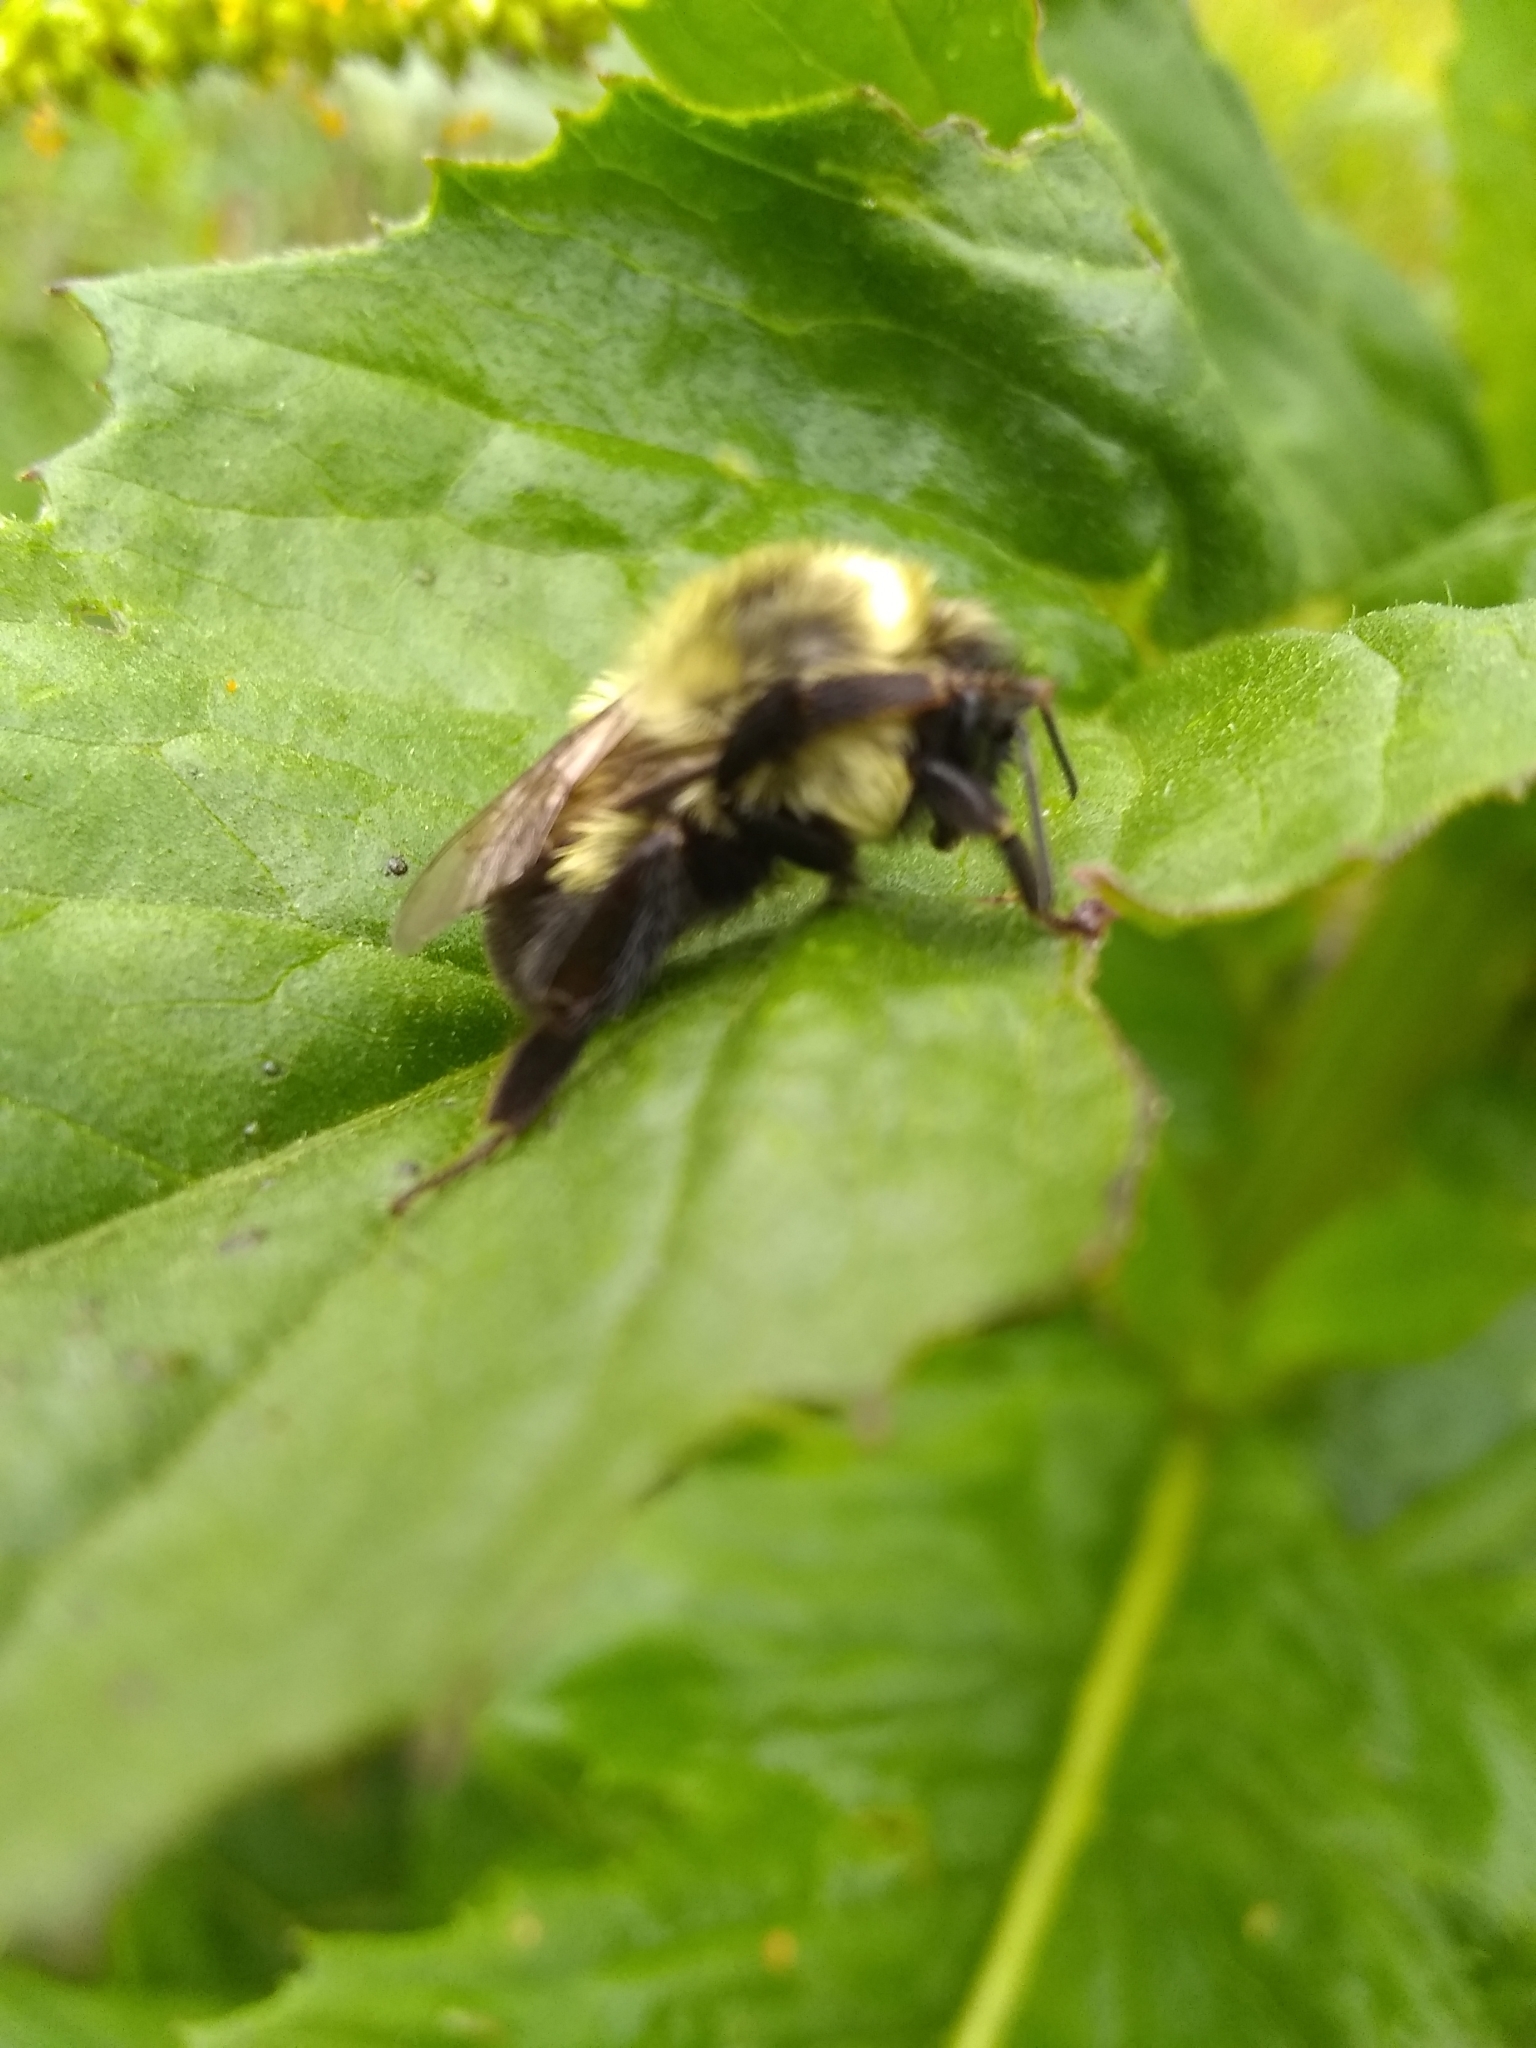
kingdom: Animalia
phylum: Arthropoda
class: Insecta
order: Hymenoptera
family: Apidae
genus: Bombus
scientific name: Bombus impatiens
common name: Common eastern bumble bee
